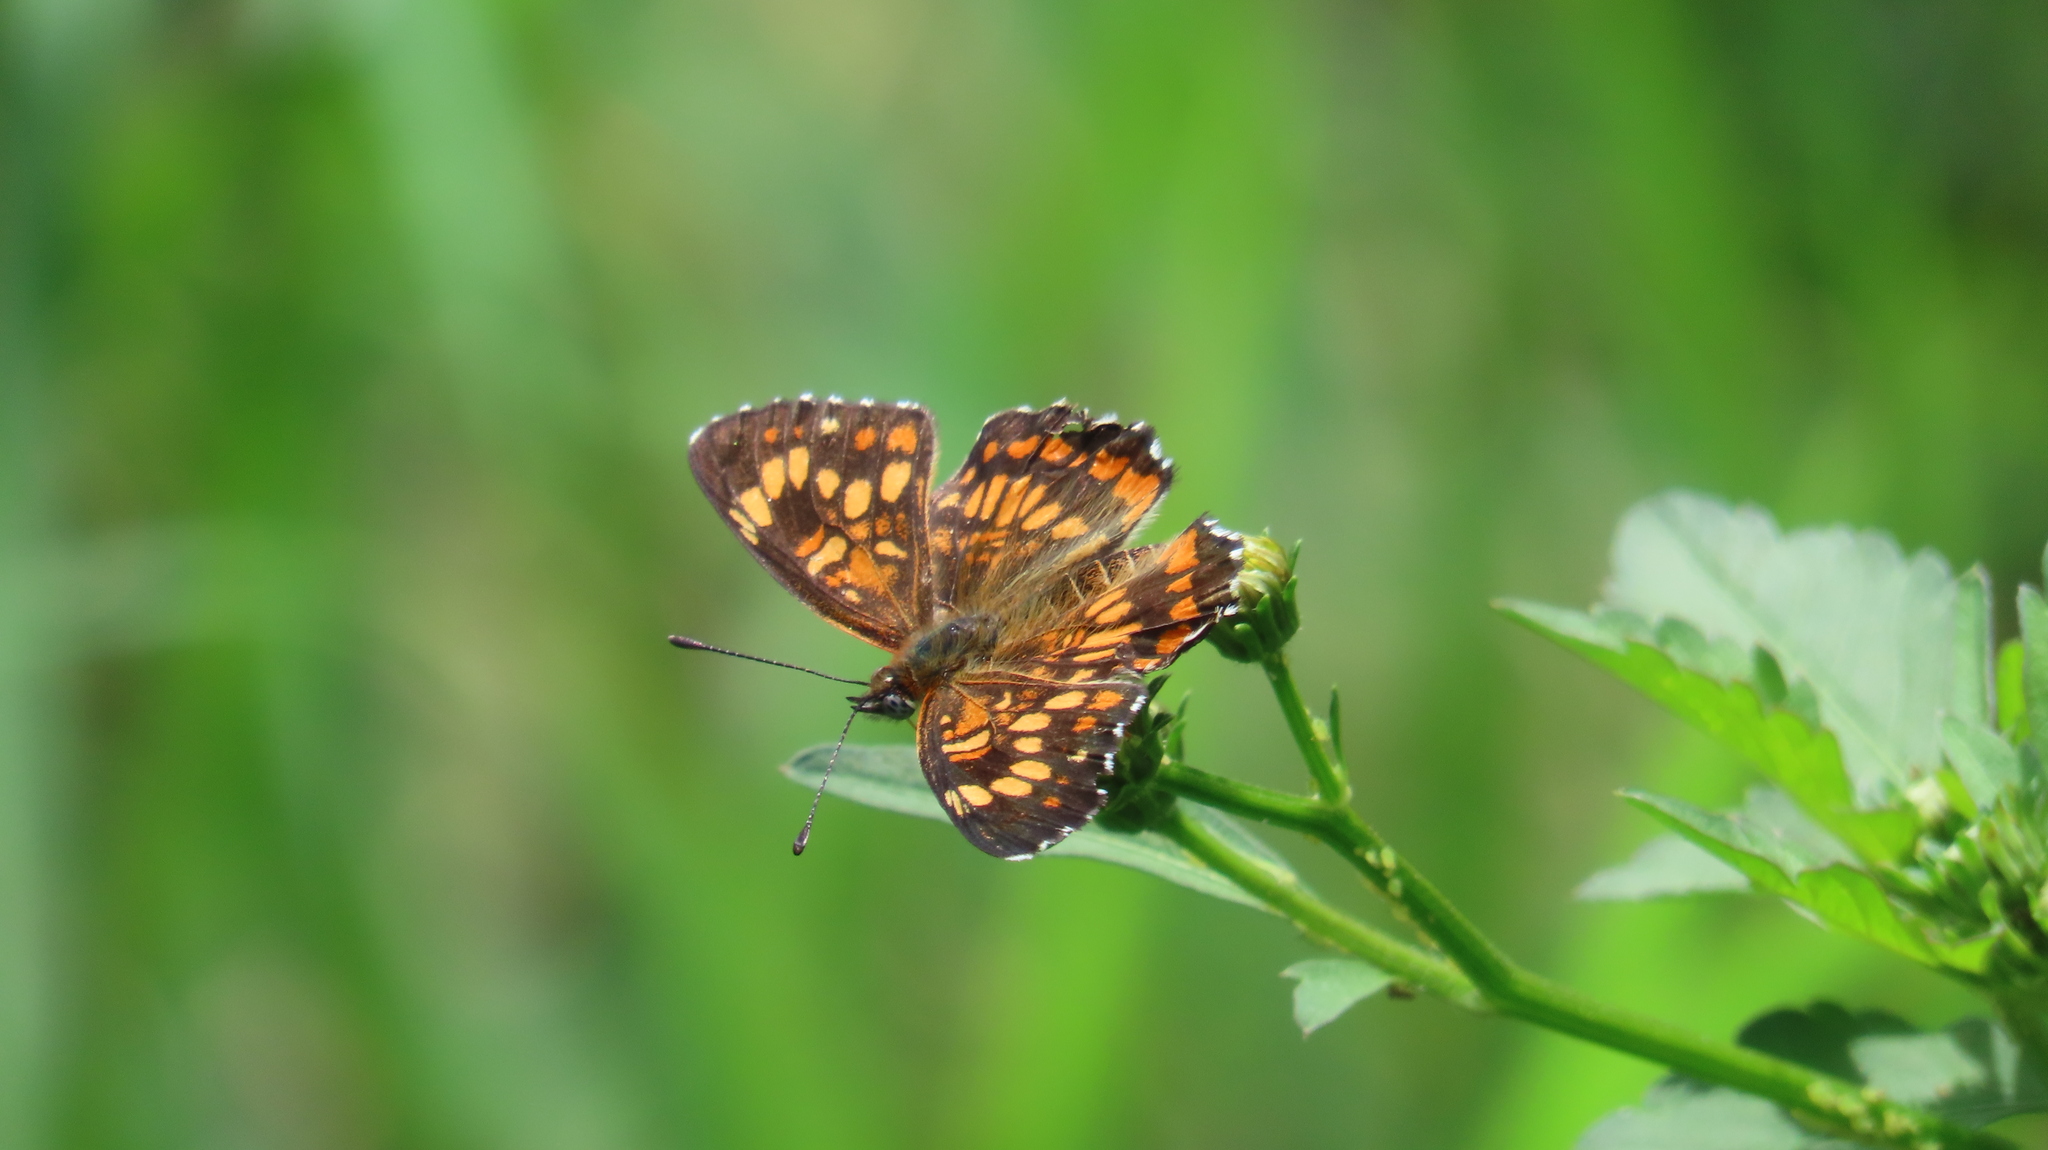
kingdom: Animalia
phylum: Arthropoda
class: Insecta
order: Lepidoptera
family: Nymphalidae
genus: Thessalia
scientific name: Thessalia theona
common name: Nymphalid moth
